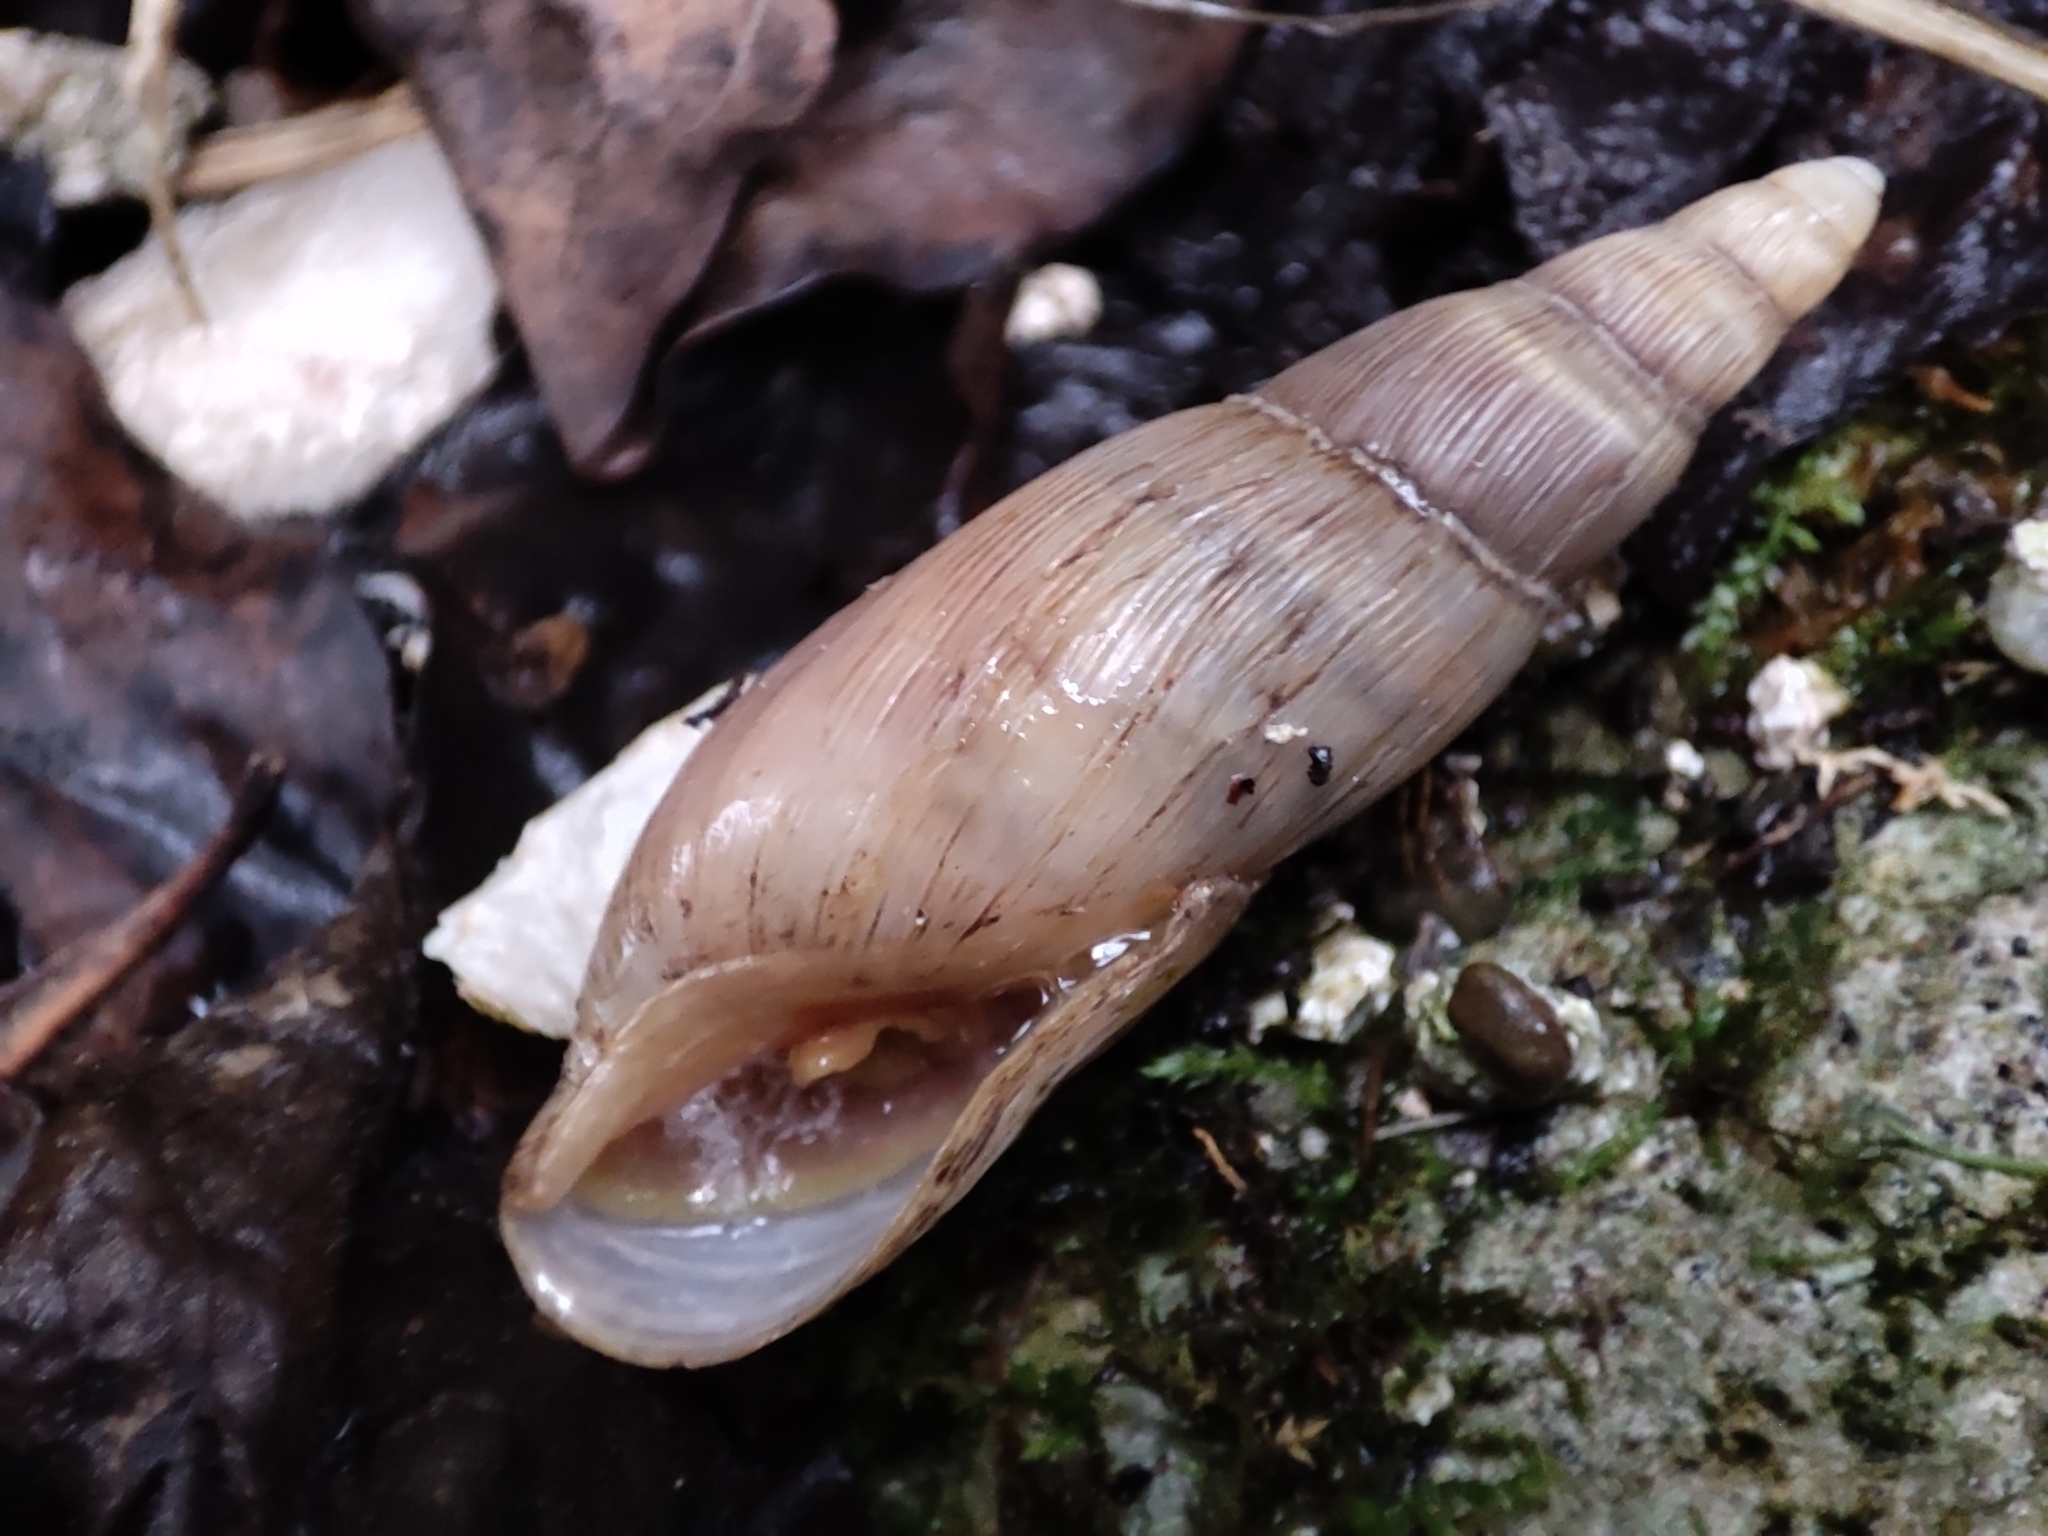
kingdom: Animalia
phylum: Mollusca
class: Gastropoda
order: Stylommatophora
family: Spiraxidae
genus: Poiretia
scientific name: Poiretia mingrelica
